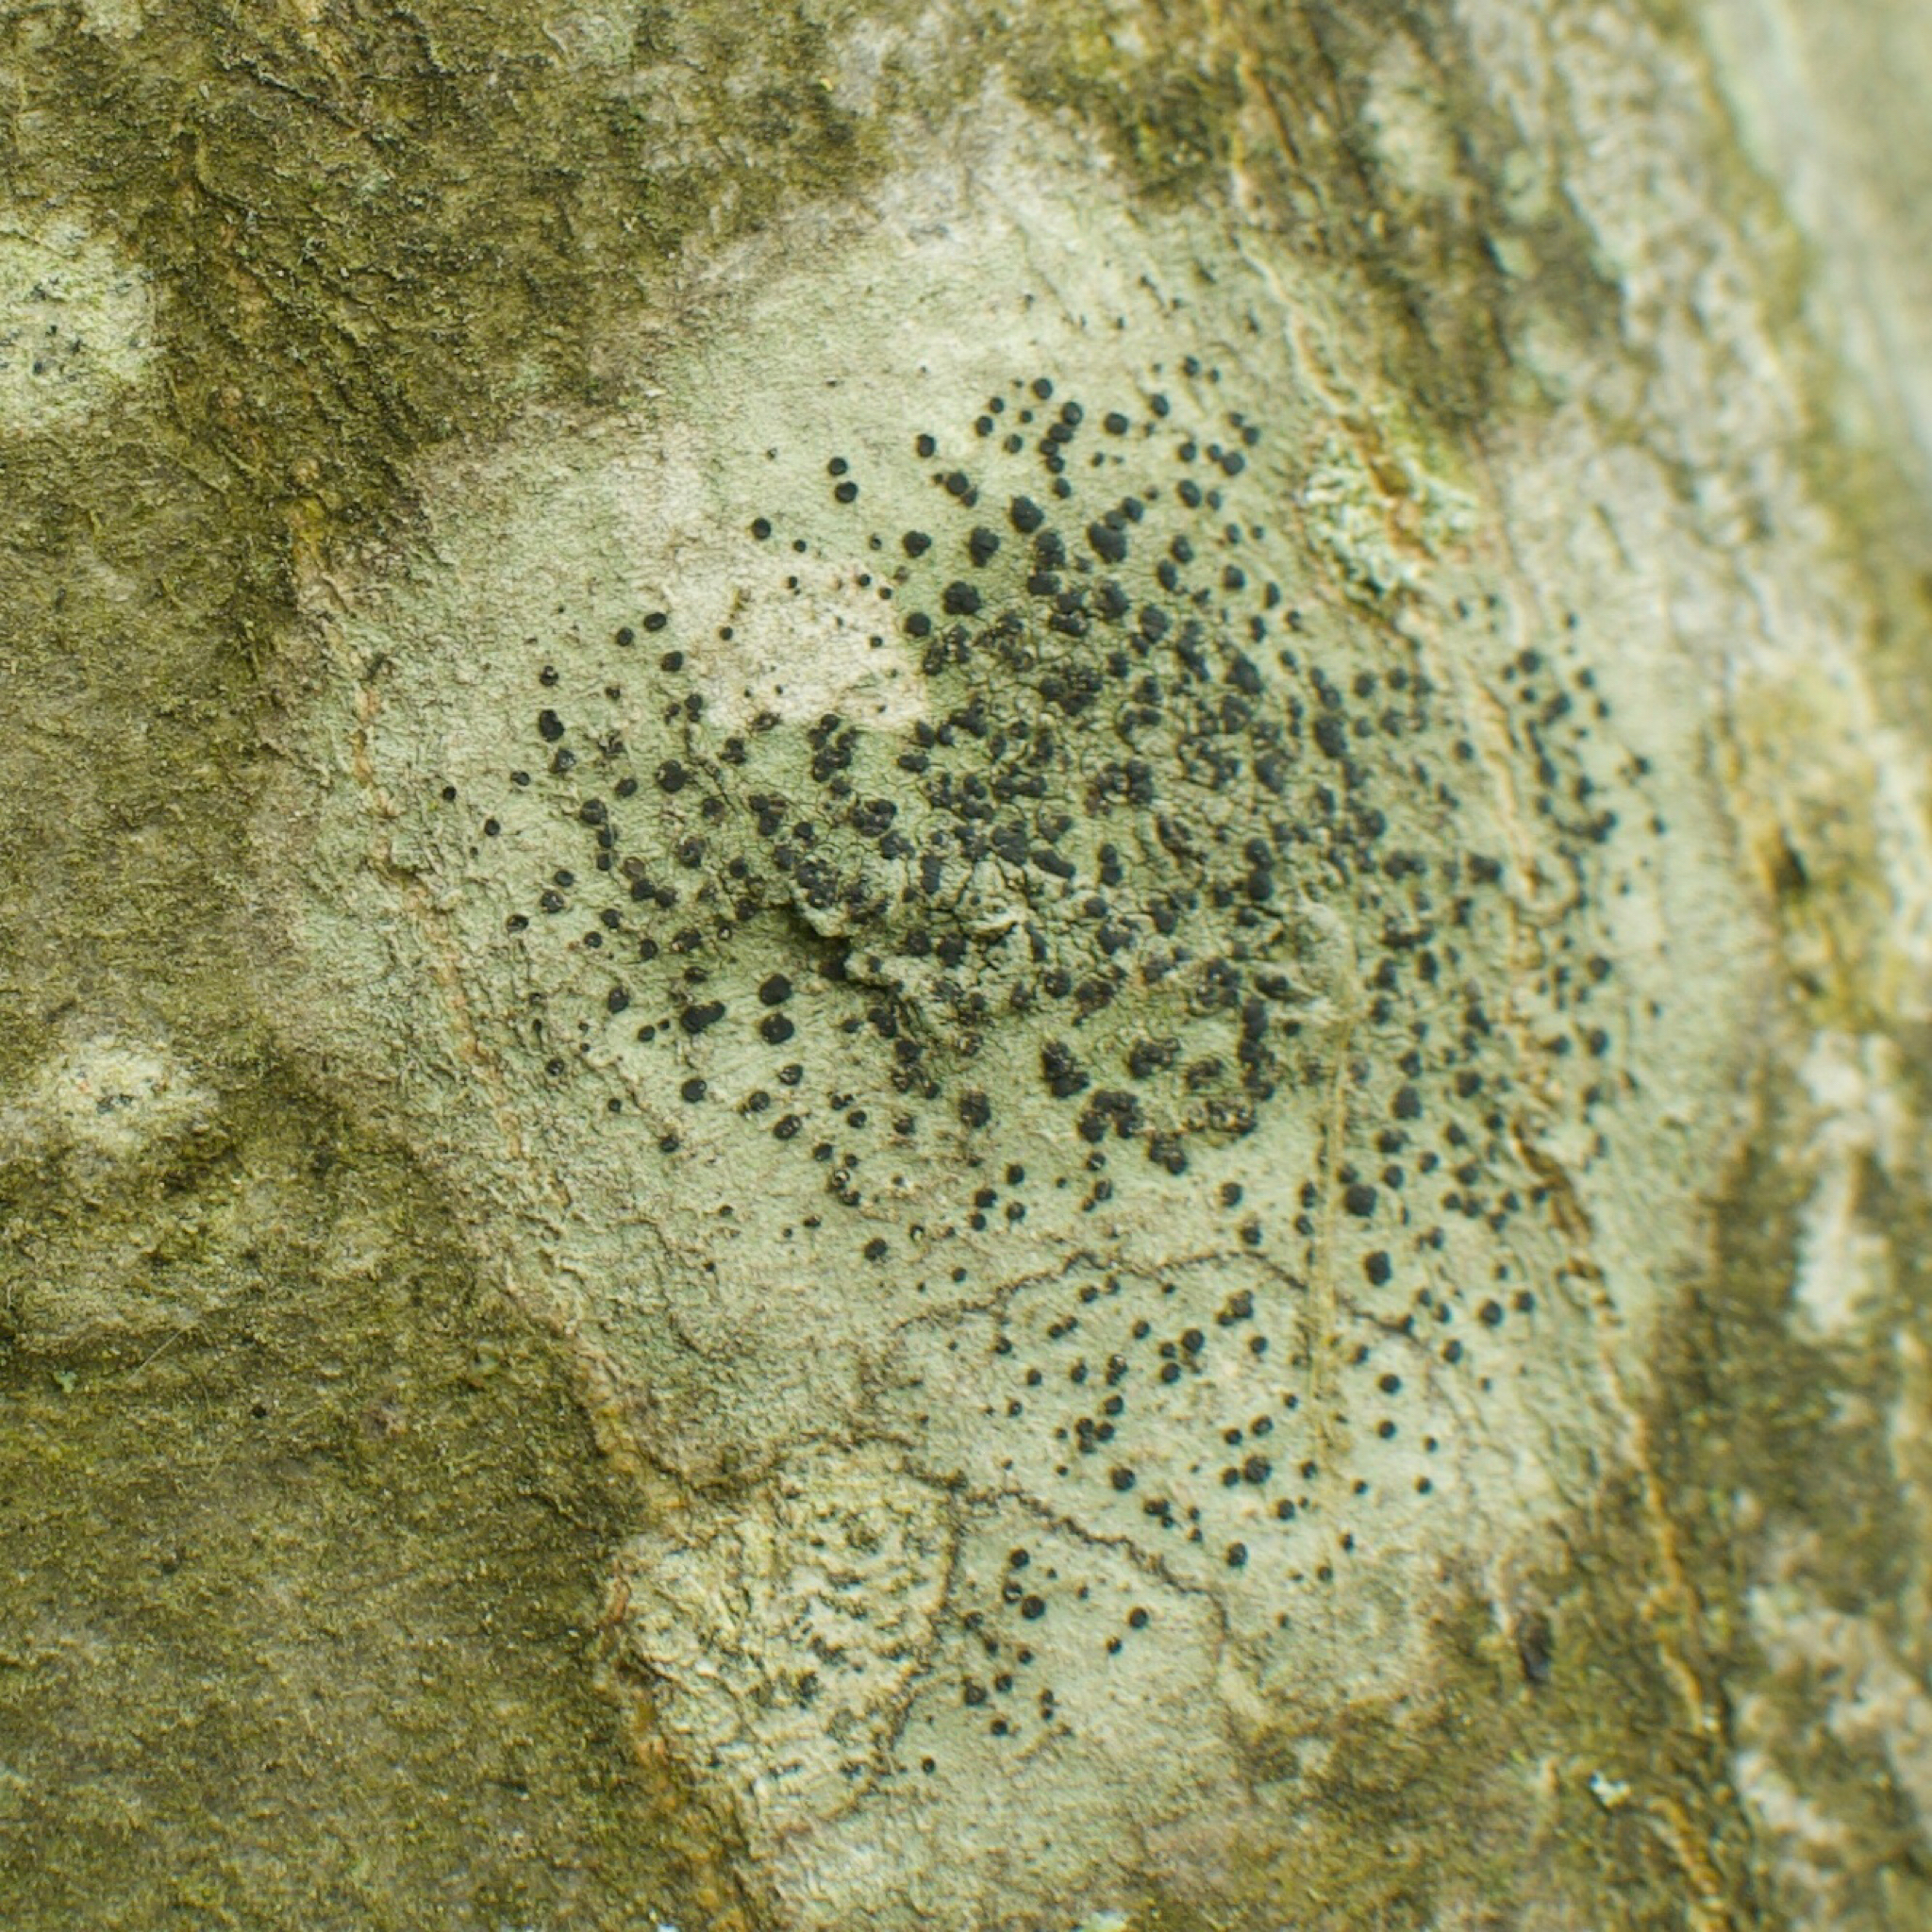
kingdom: Fungi
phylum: Ascomycota
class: Lecanoromycetes
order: Lecanorales
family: Lecanoraceae
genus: Lecidella
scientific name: Lecidella elaeochroma
